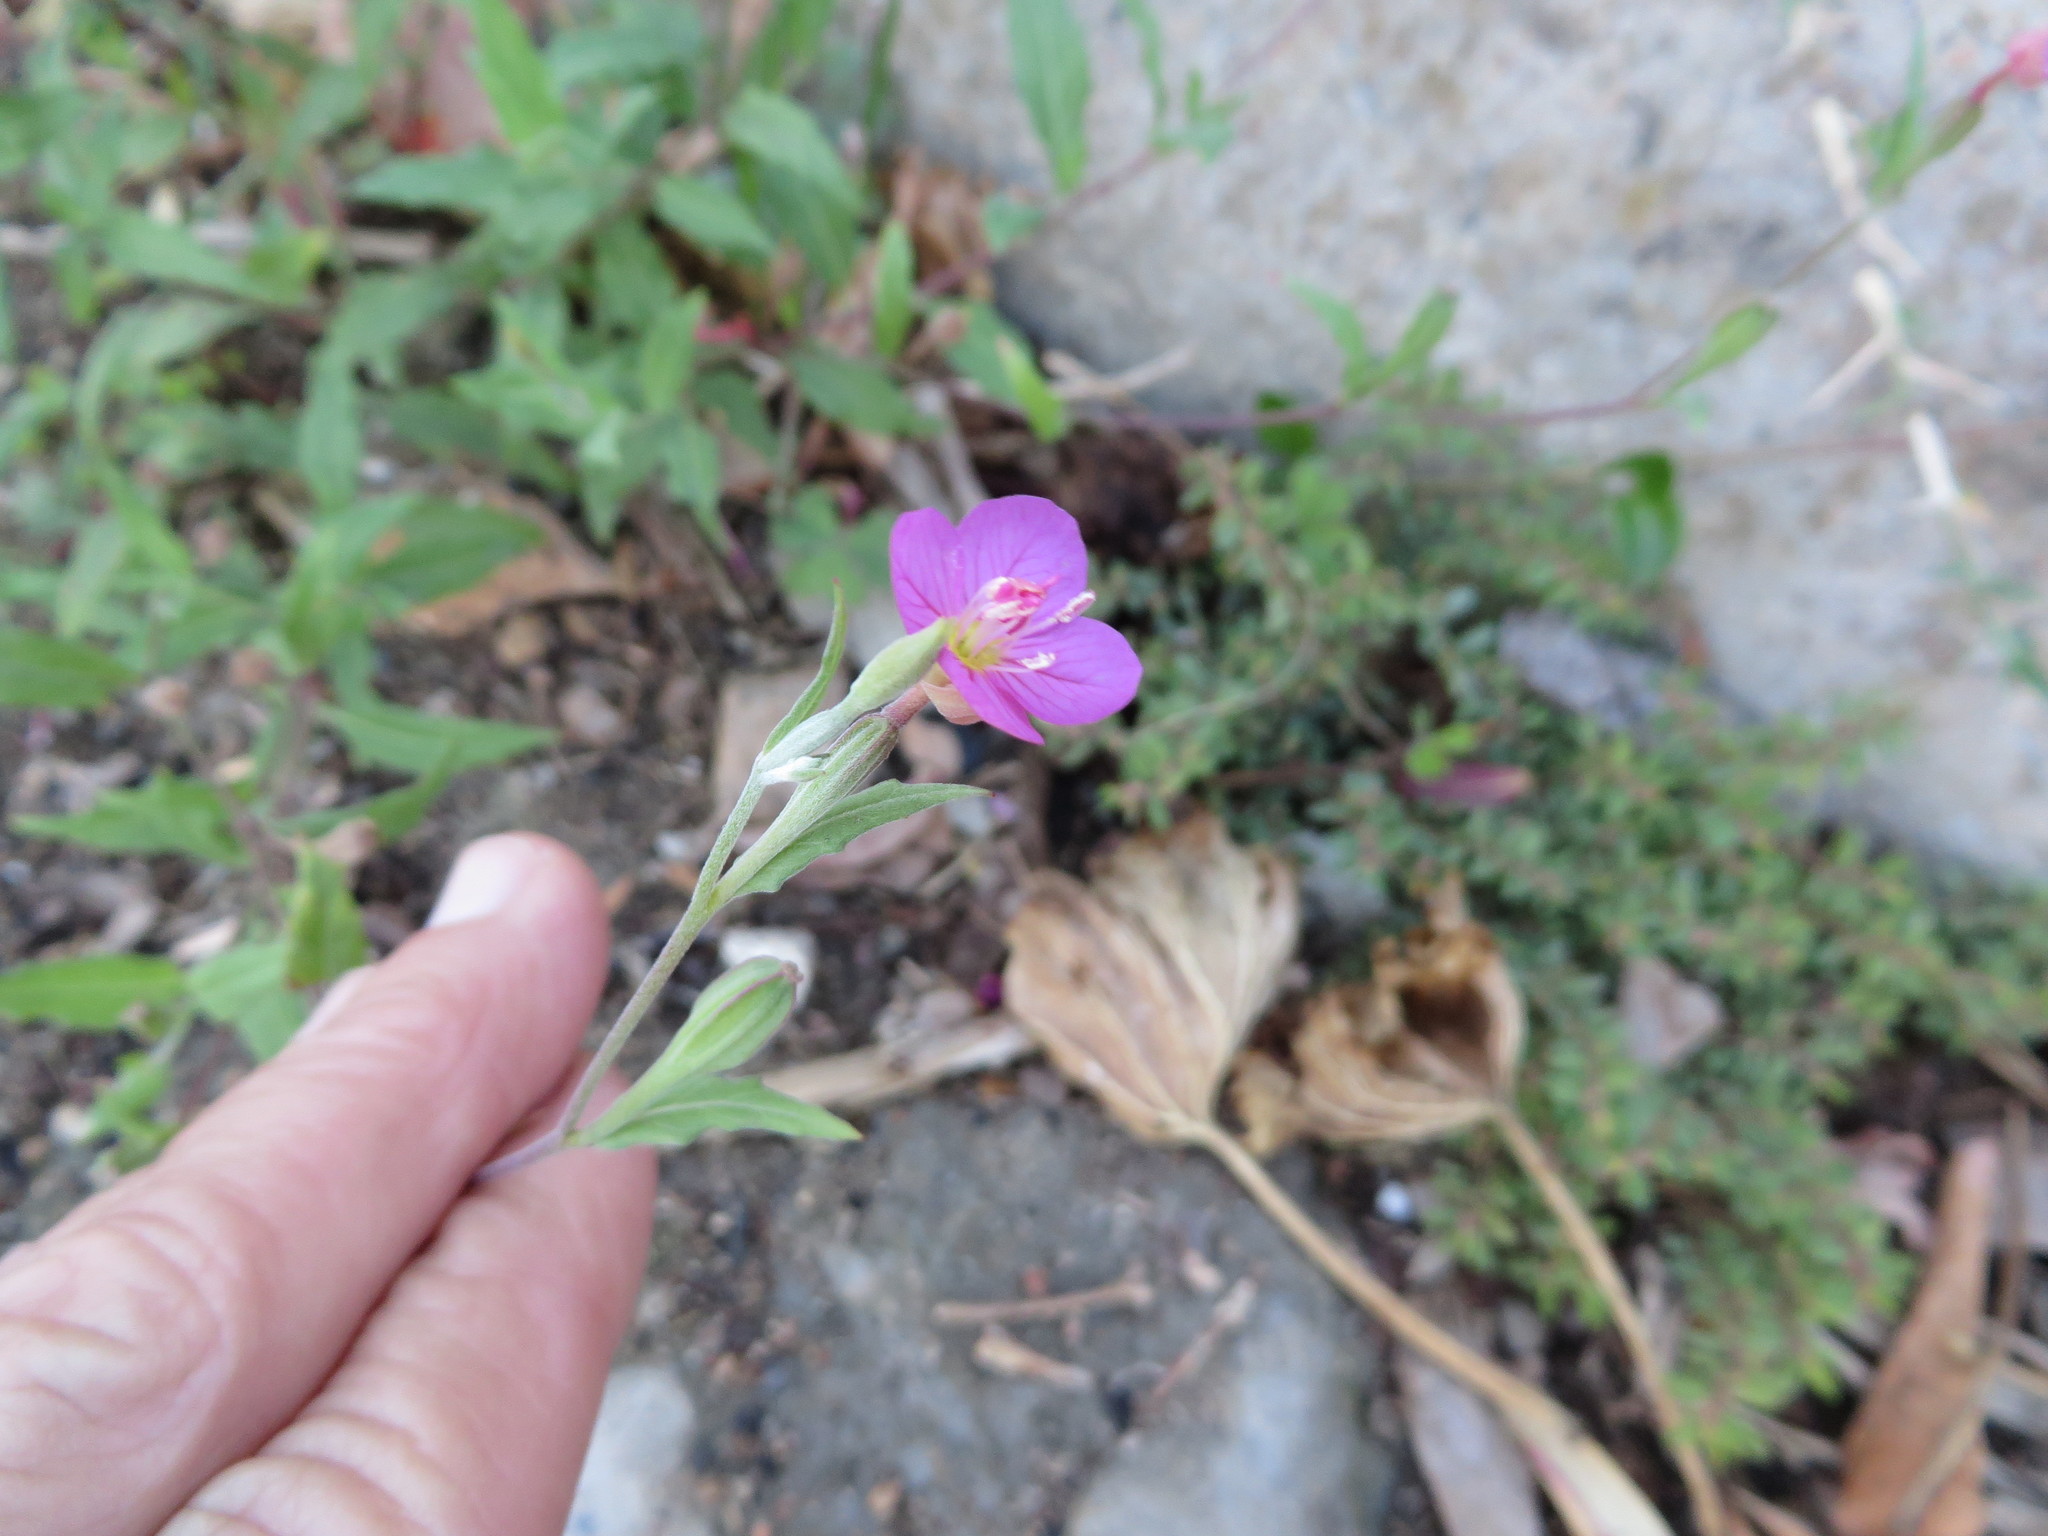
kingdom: Plantae
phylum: Tracheophyta
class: Magnoliopsida
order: Myrtales
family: Onagraceae
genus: Oenothera
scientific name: Oenothera rosea
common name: Rosy evening-primrose
